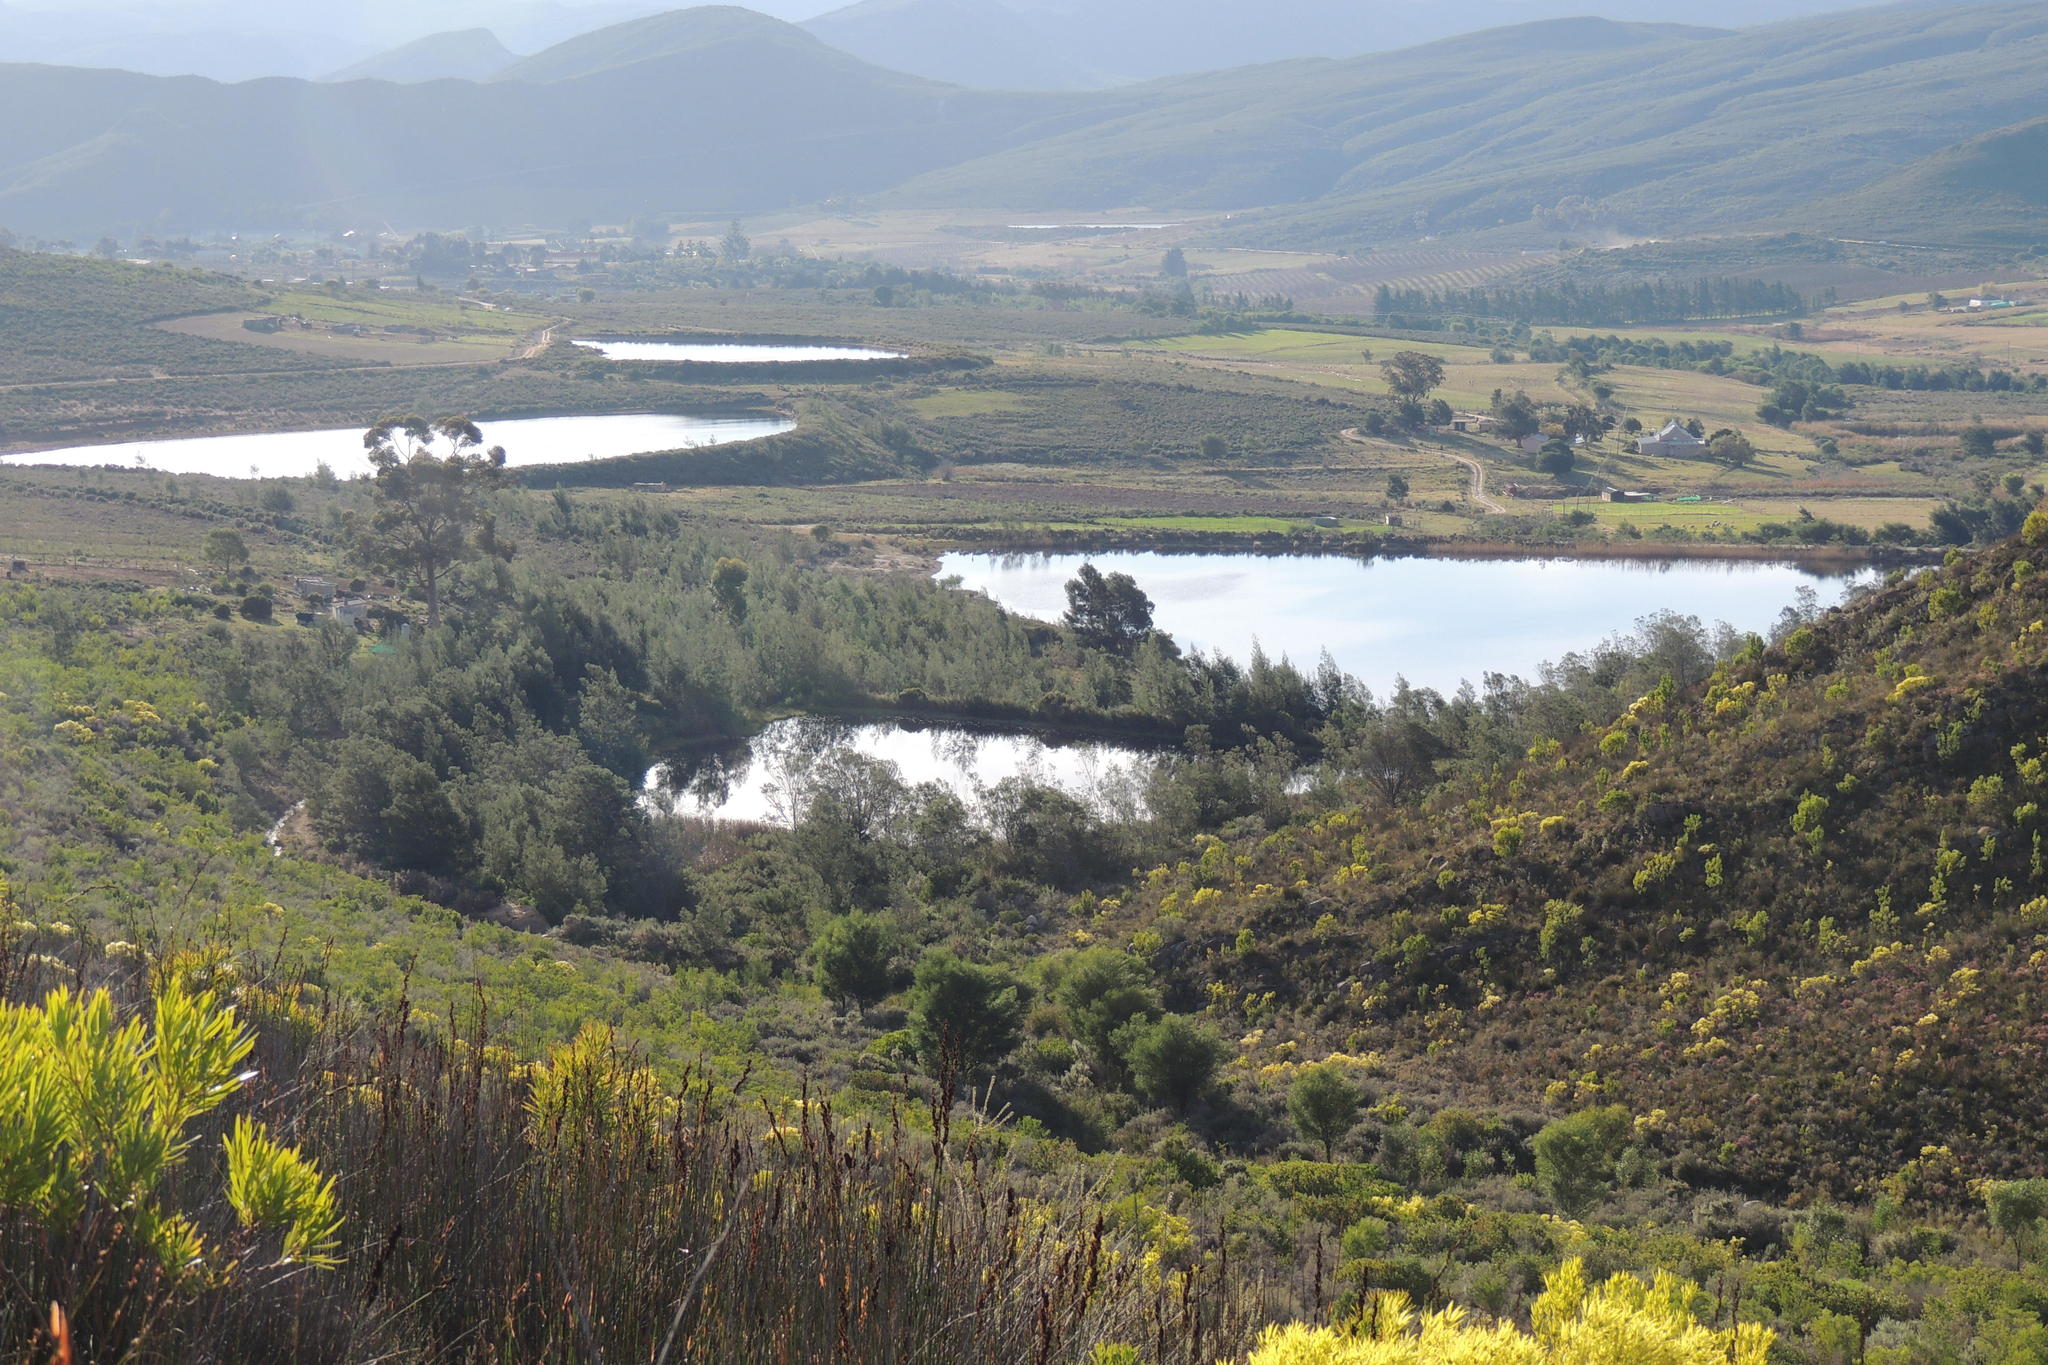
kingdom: Plantae
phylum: Tracheophyta
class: Magnoliopsida
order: Fabales
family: Fabaceae
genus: Acacia
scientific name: Acacia mearnsii
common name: Black wattle
